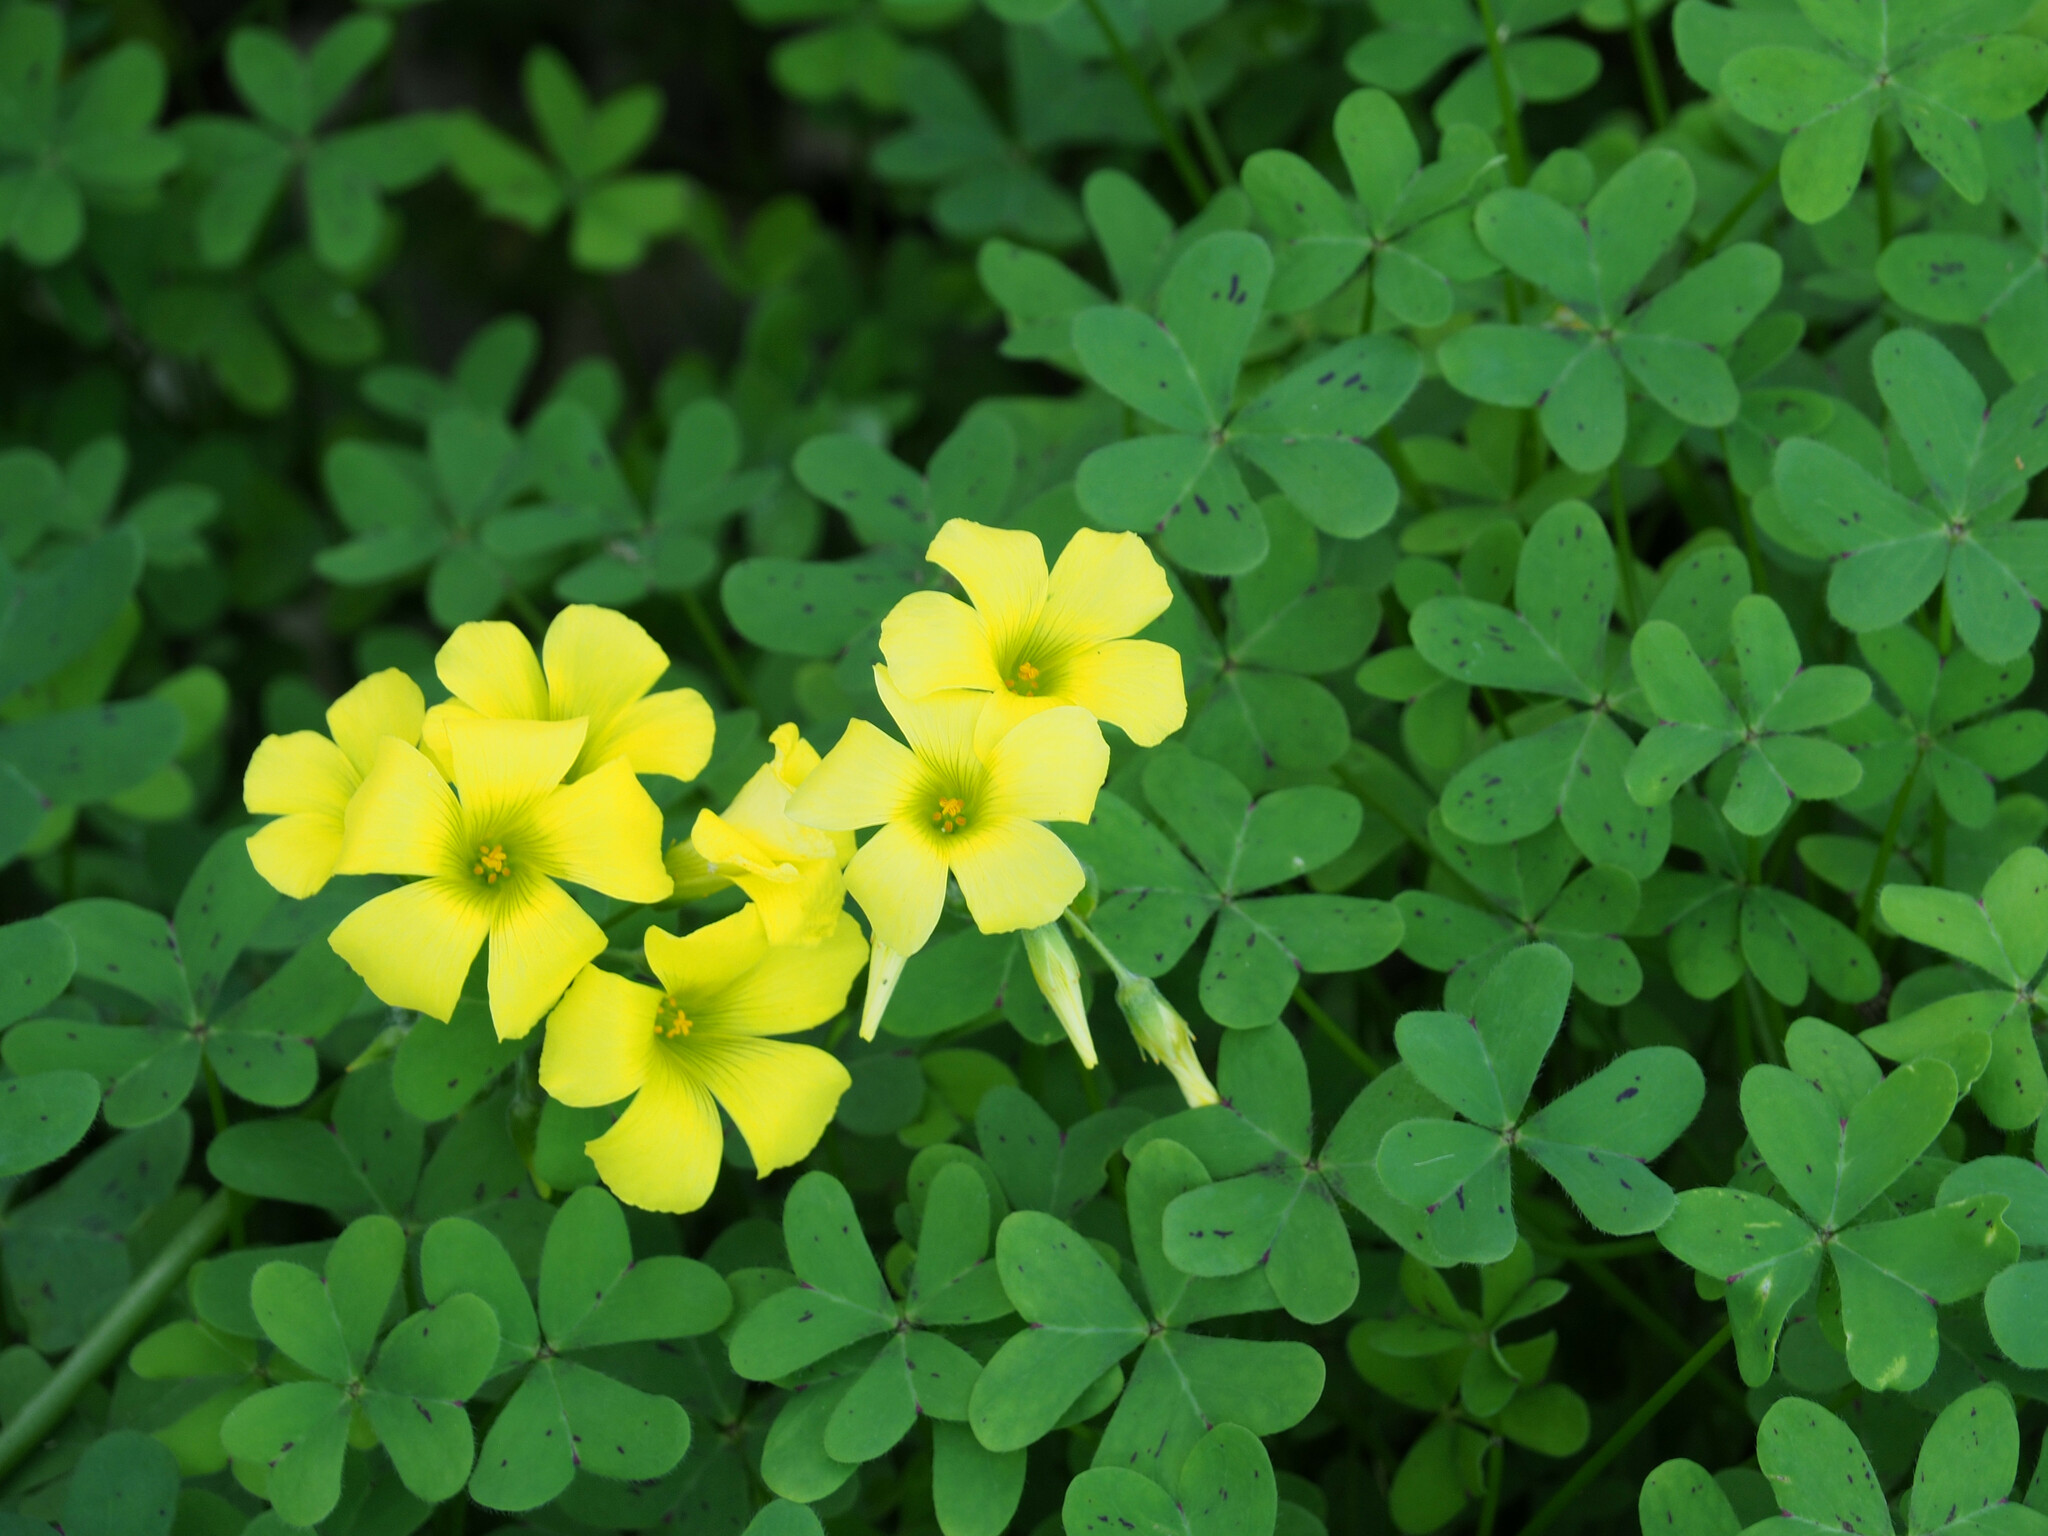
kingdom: Plantae
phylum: Tracheophyta
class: Magnoliopsida
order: Oxalidales
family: Oxalidaceae
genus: Oxalis
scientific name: Oxalis pes-caprae
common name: Bermuda-buttercup
